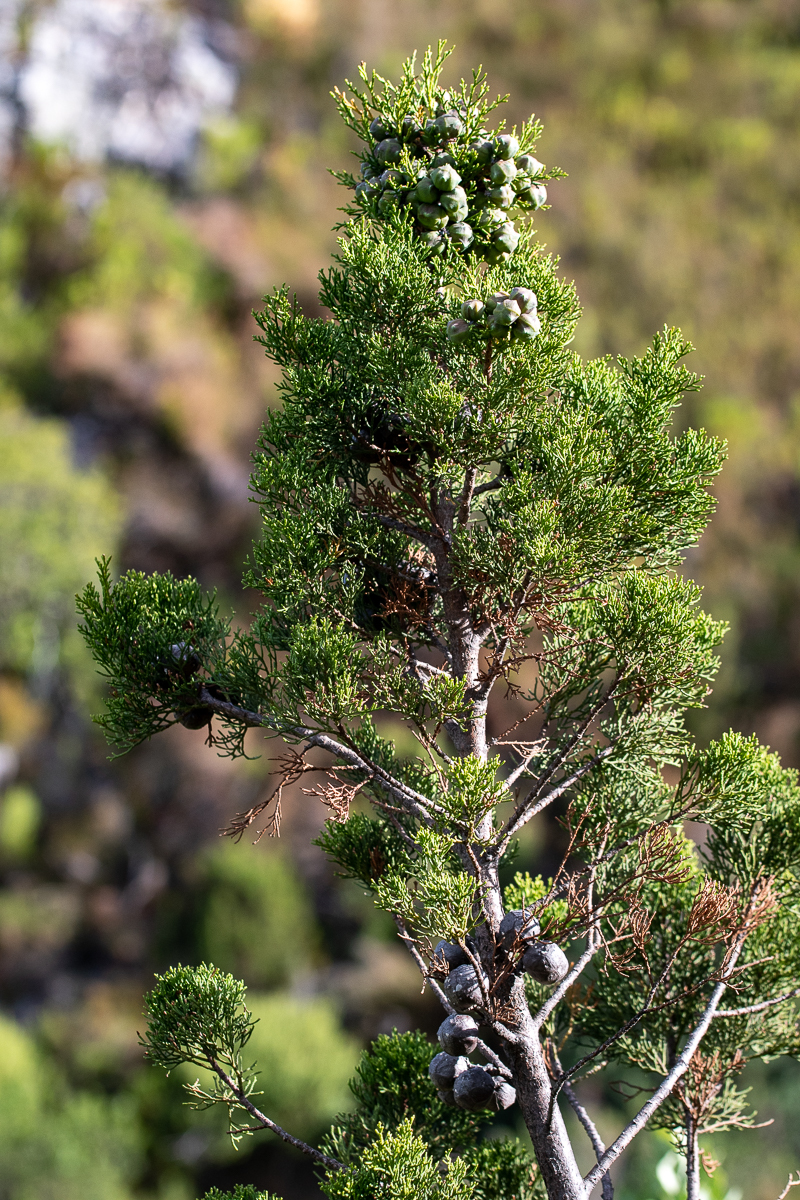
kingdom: Plantae
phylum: Tracheophyta
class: Pinopsida
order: Pinales
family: Cupressaceae
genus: Widdringtonia
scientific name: Widdringtonia nodiflora
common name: Cape cypress
